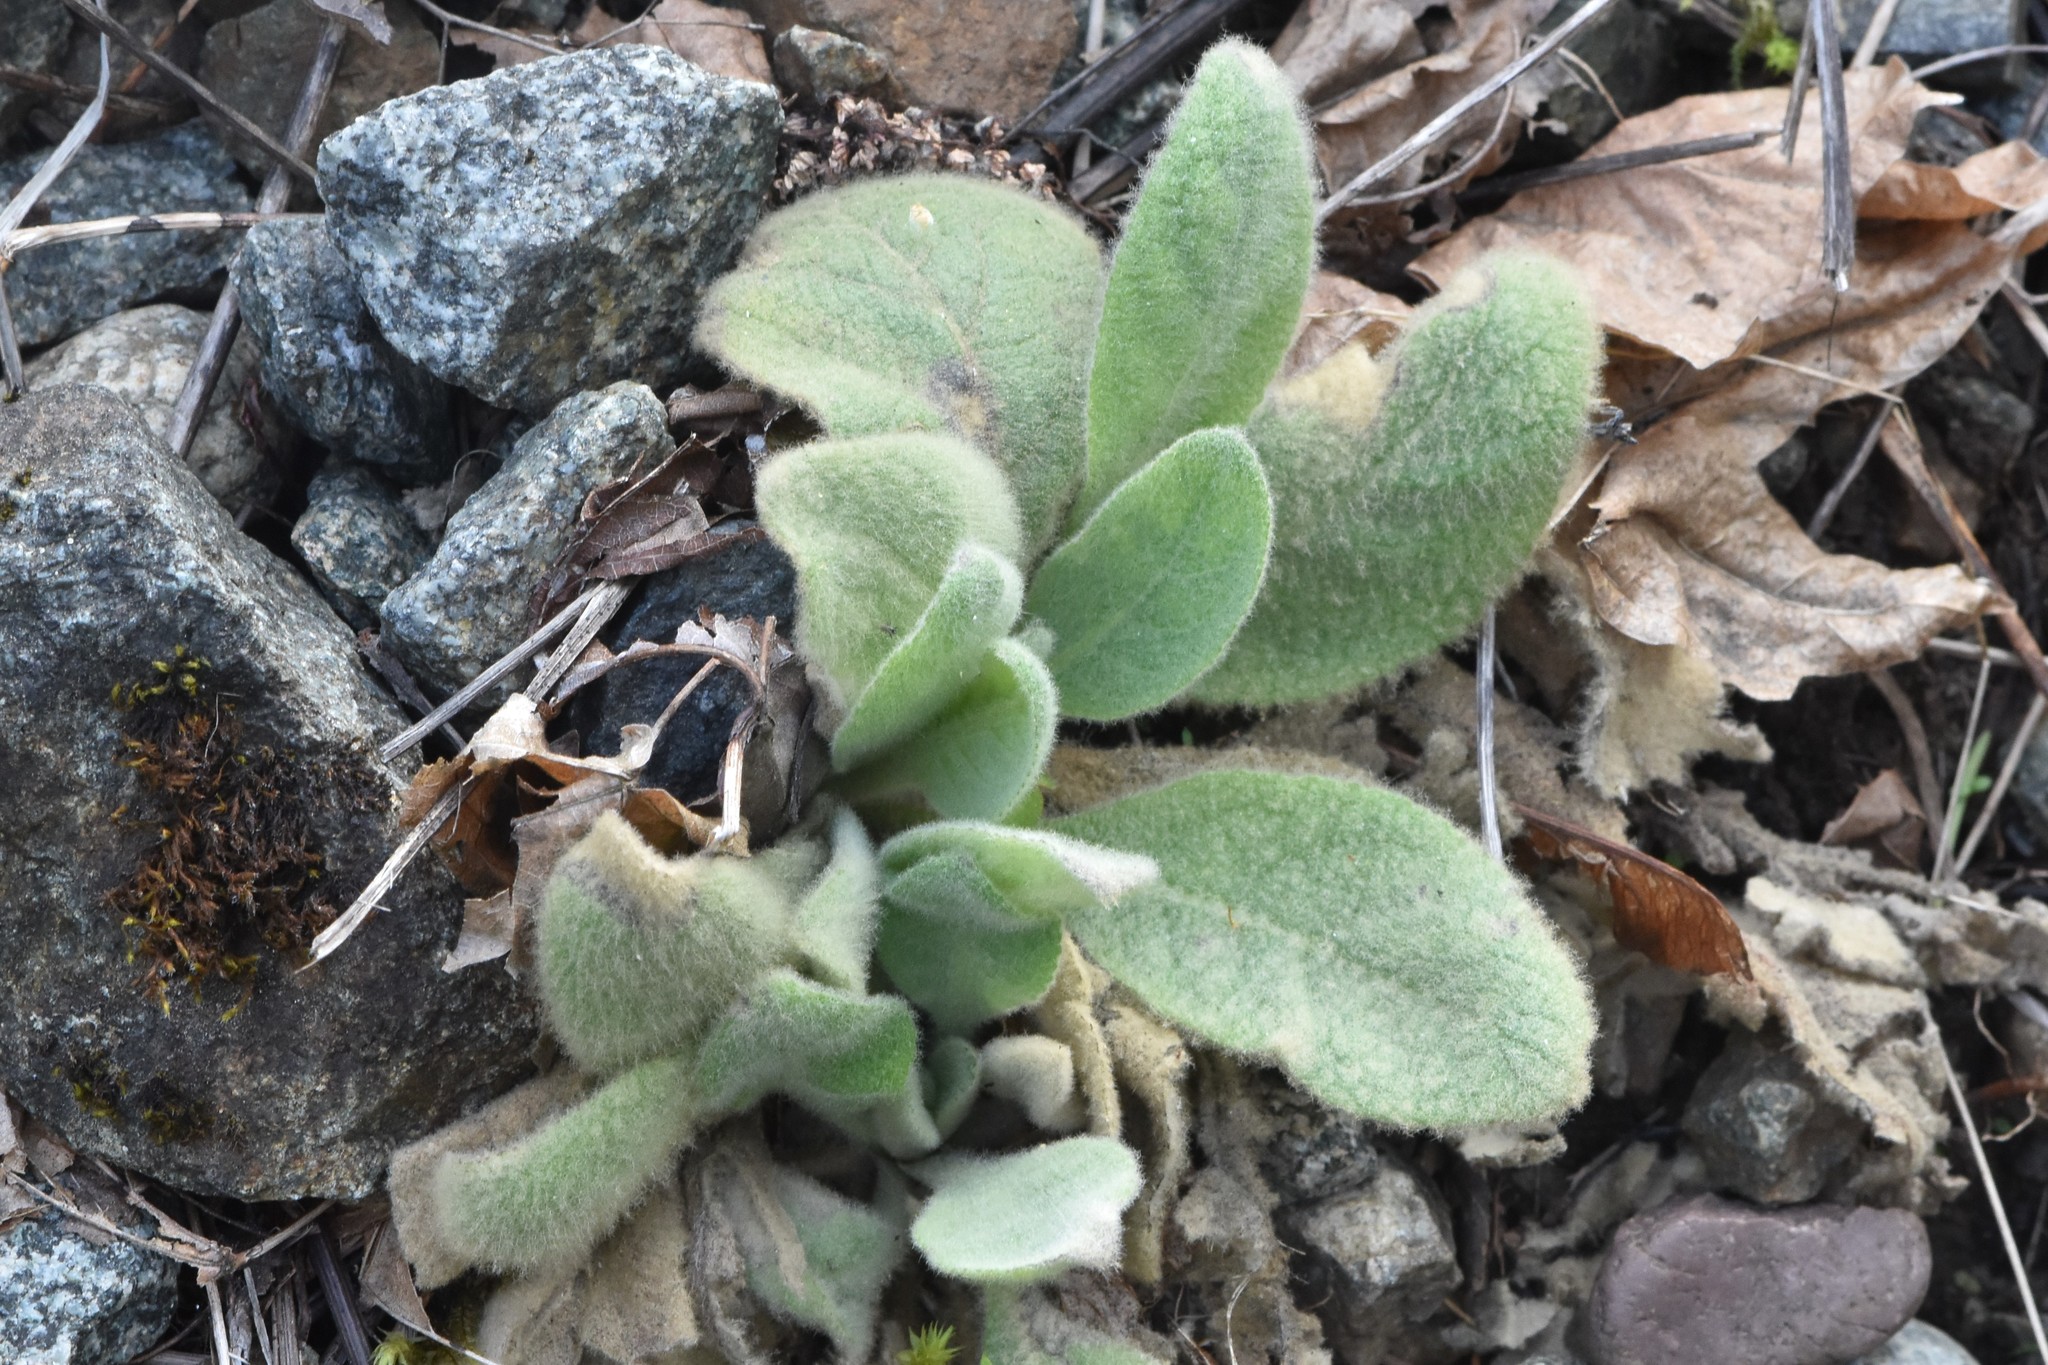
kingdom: Plantae
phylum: Tracheophyta
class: Magnoliopsida
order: Lamiales
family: Scrophulariaceae
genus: Verbascum
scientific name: Verbascum thapsus
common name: Common mullein
